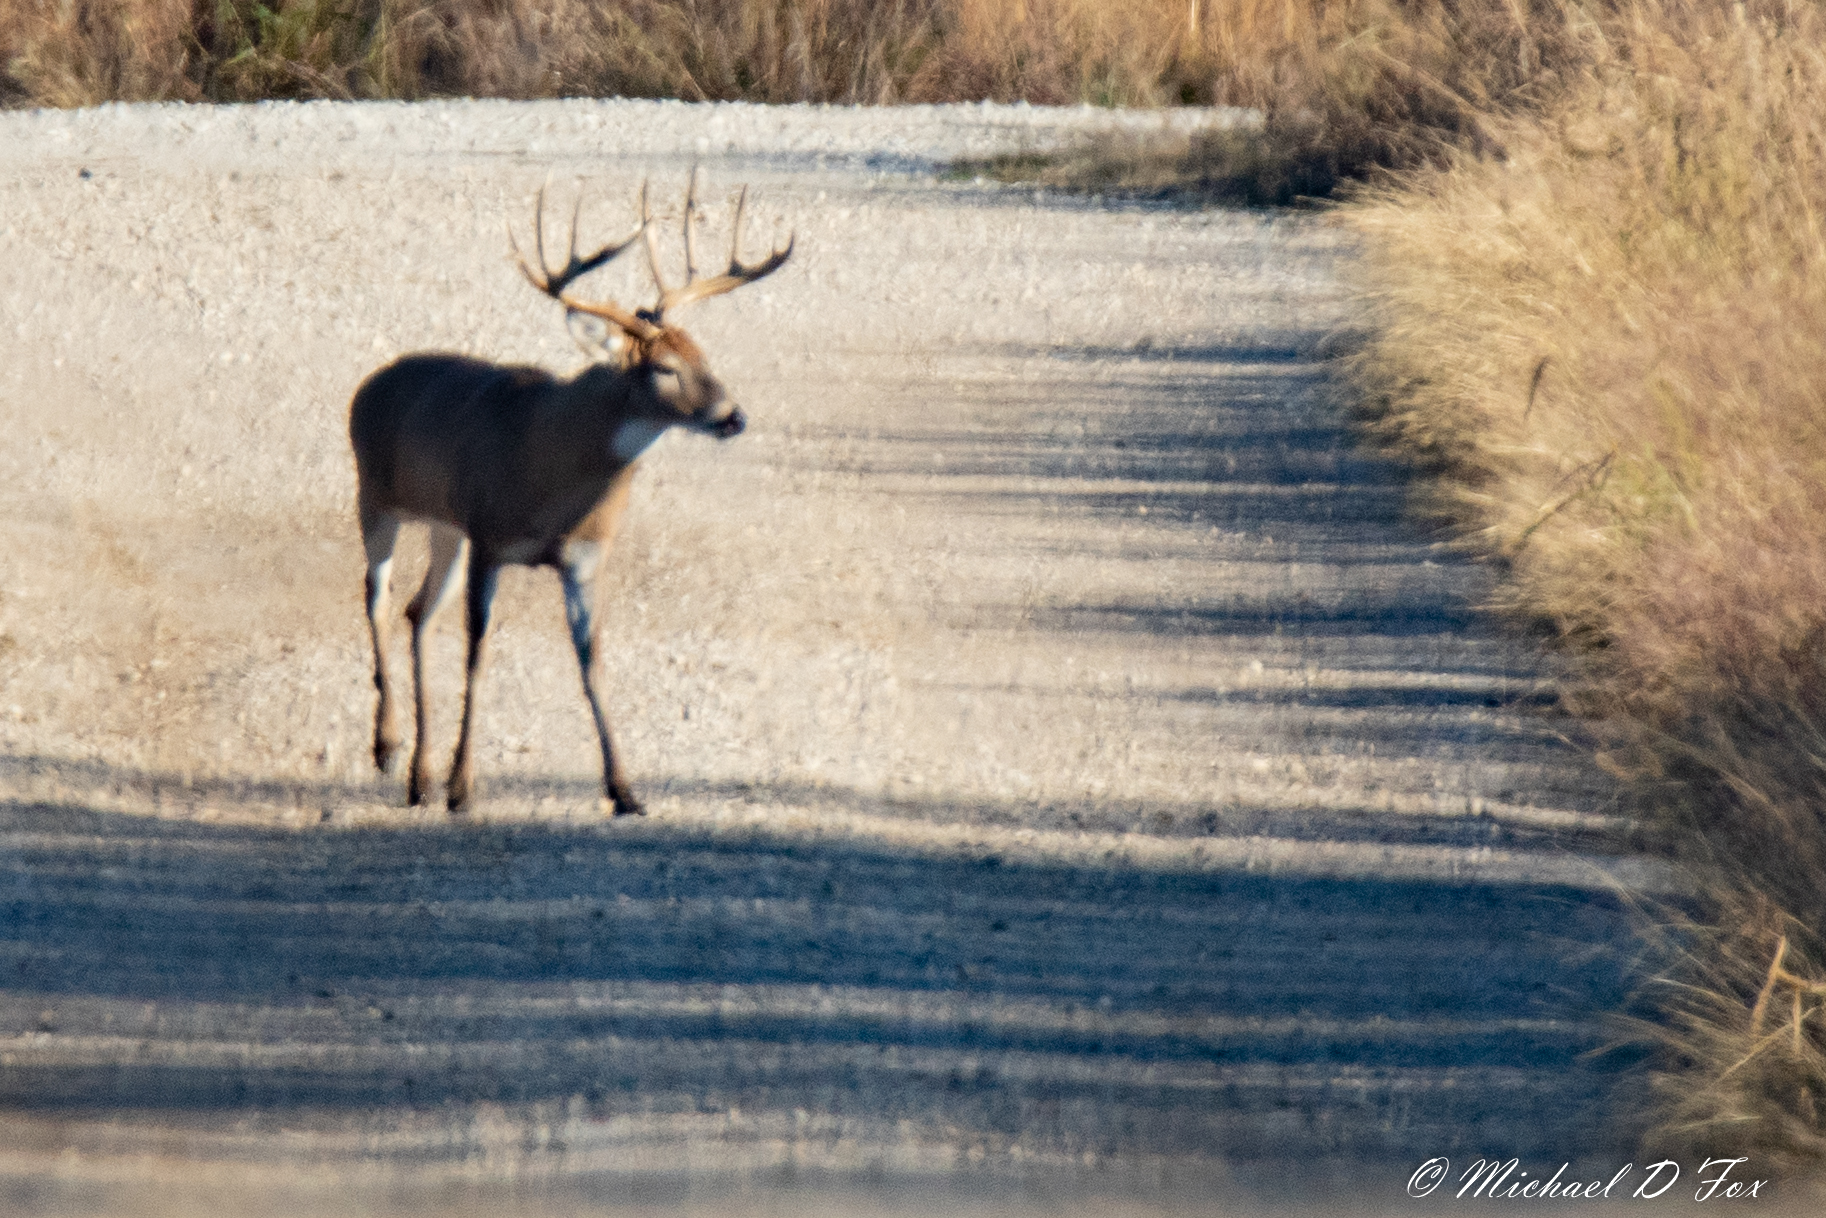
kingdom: Animalia
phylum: Chordata
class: Mammalia
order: Artiodactyla
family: Cervidae
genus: Odocoileus
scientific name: Odocoileus virginianus
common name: White-tailed deer
